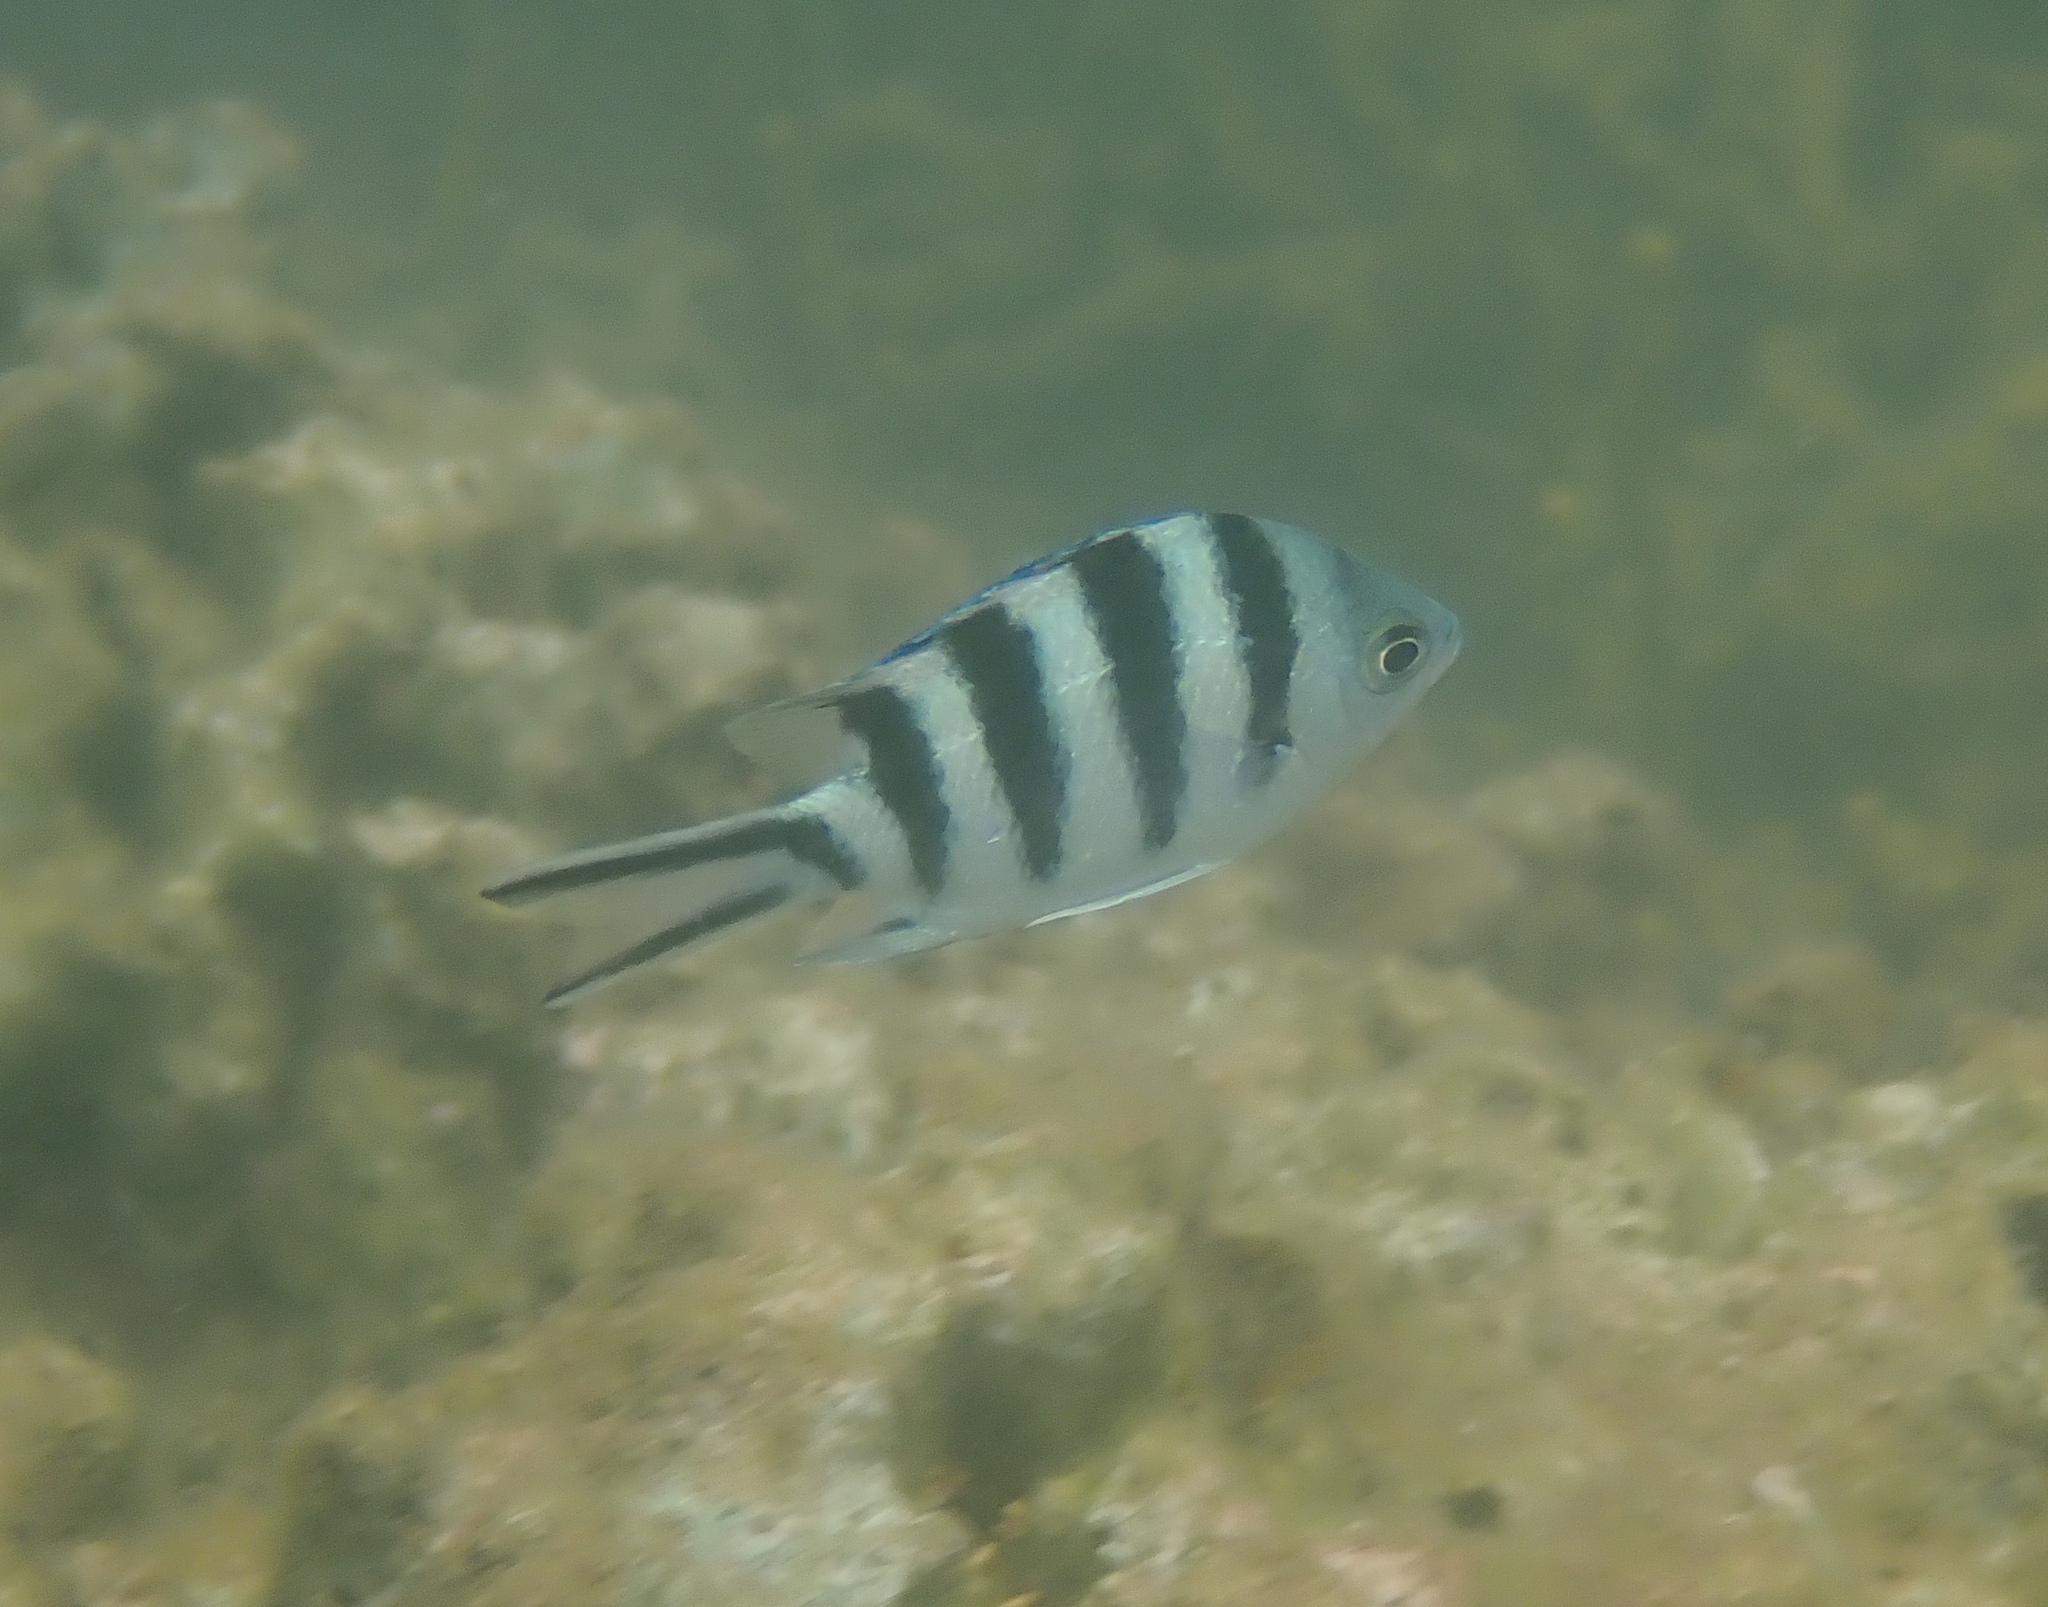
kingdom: Animalia
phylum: Chordata
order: Perciformes
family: Pomacentridae
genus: Abudefduf
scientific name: Abudefduf sexfasciatus
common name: Scissortail sergeant
